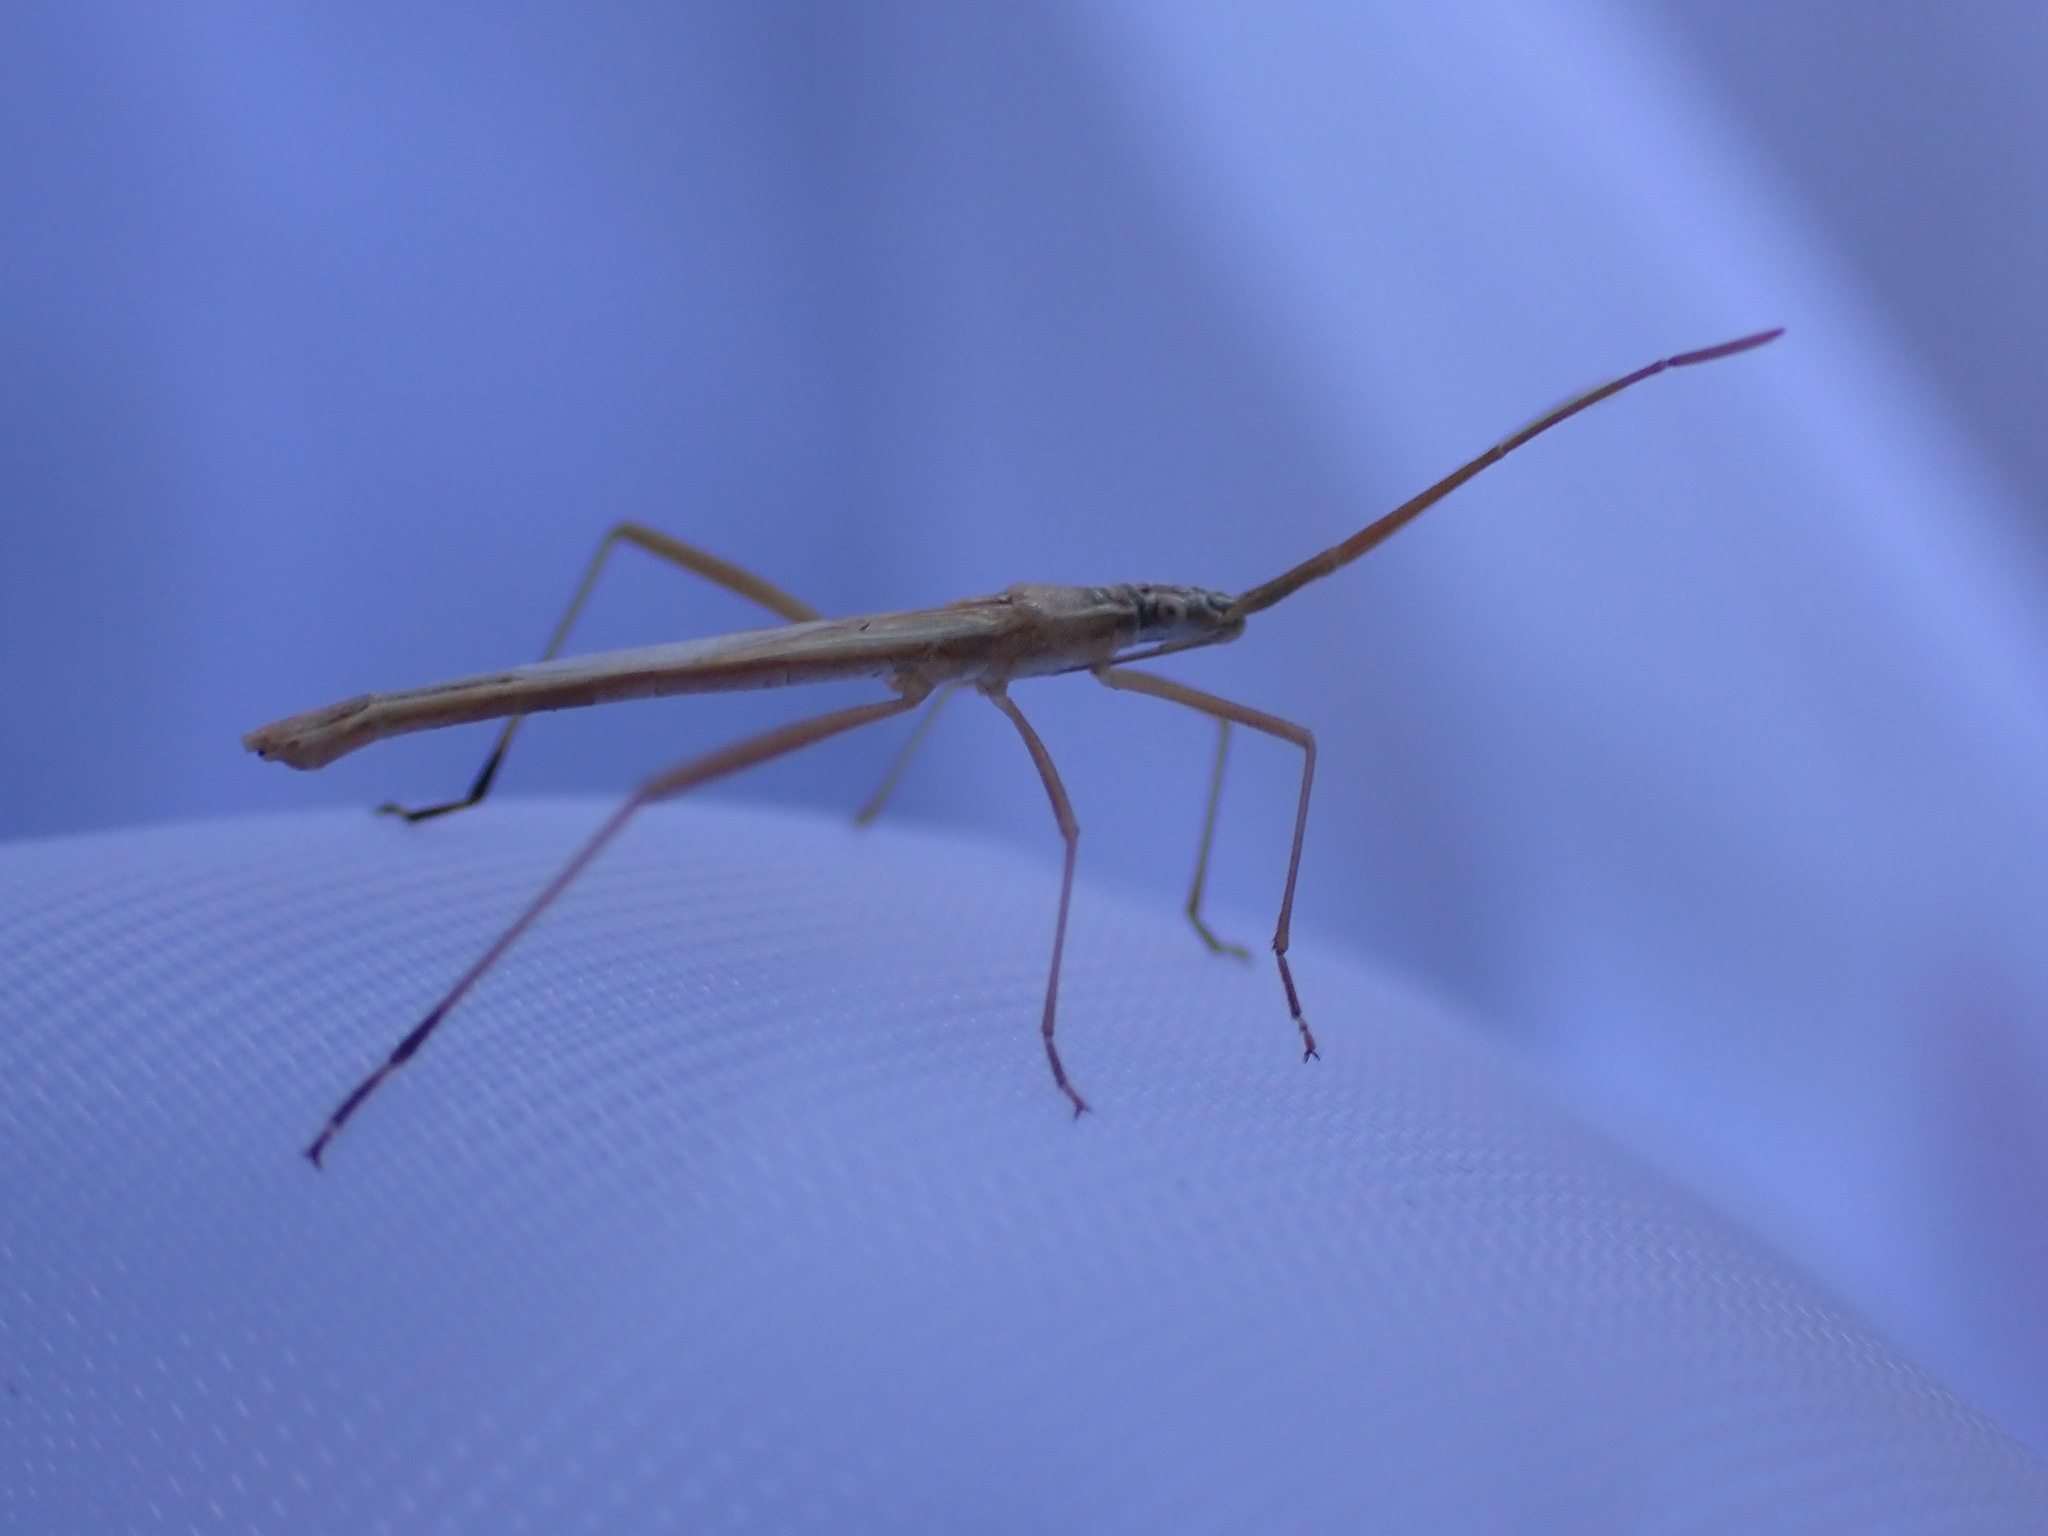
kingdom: Animalia
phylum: Arthropoda
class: Insecta
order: Hemiptera
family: Rhopalidae
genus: Chorosoma
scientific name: Chorosoma schillingii
